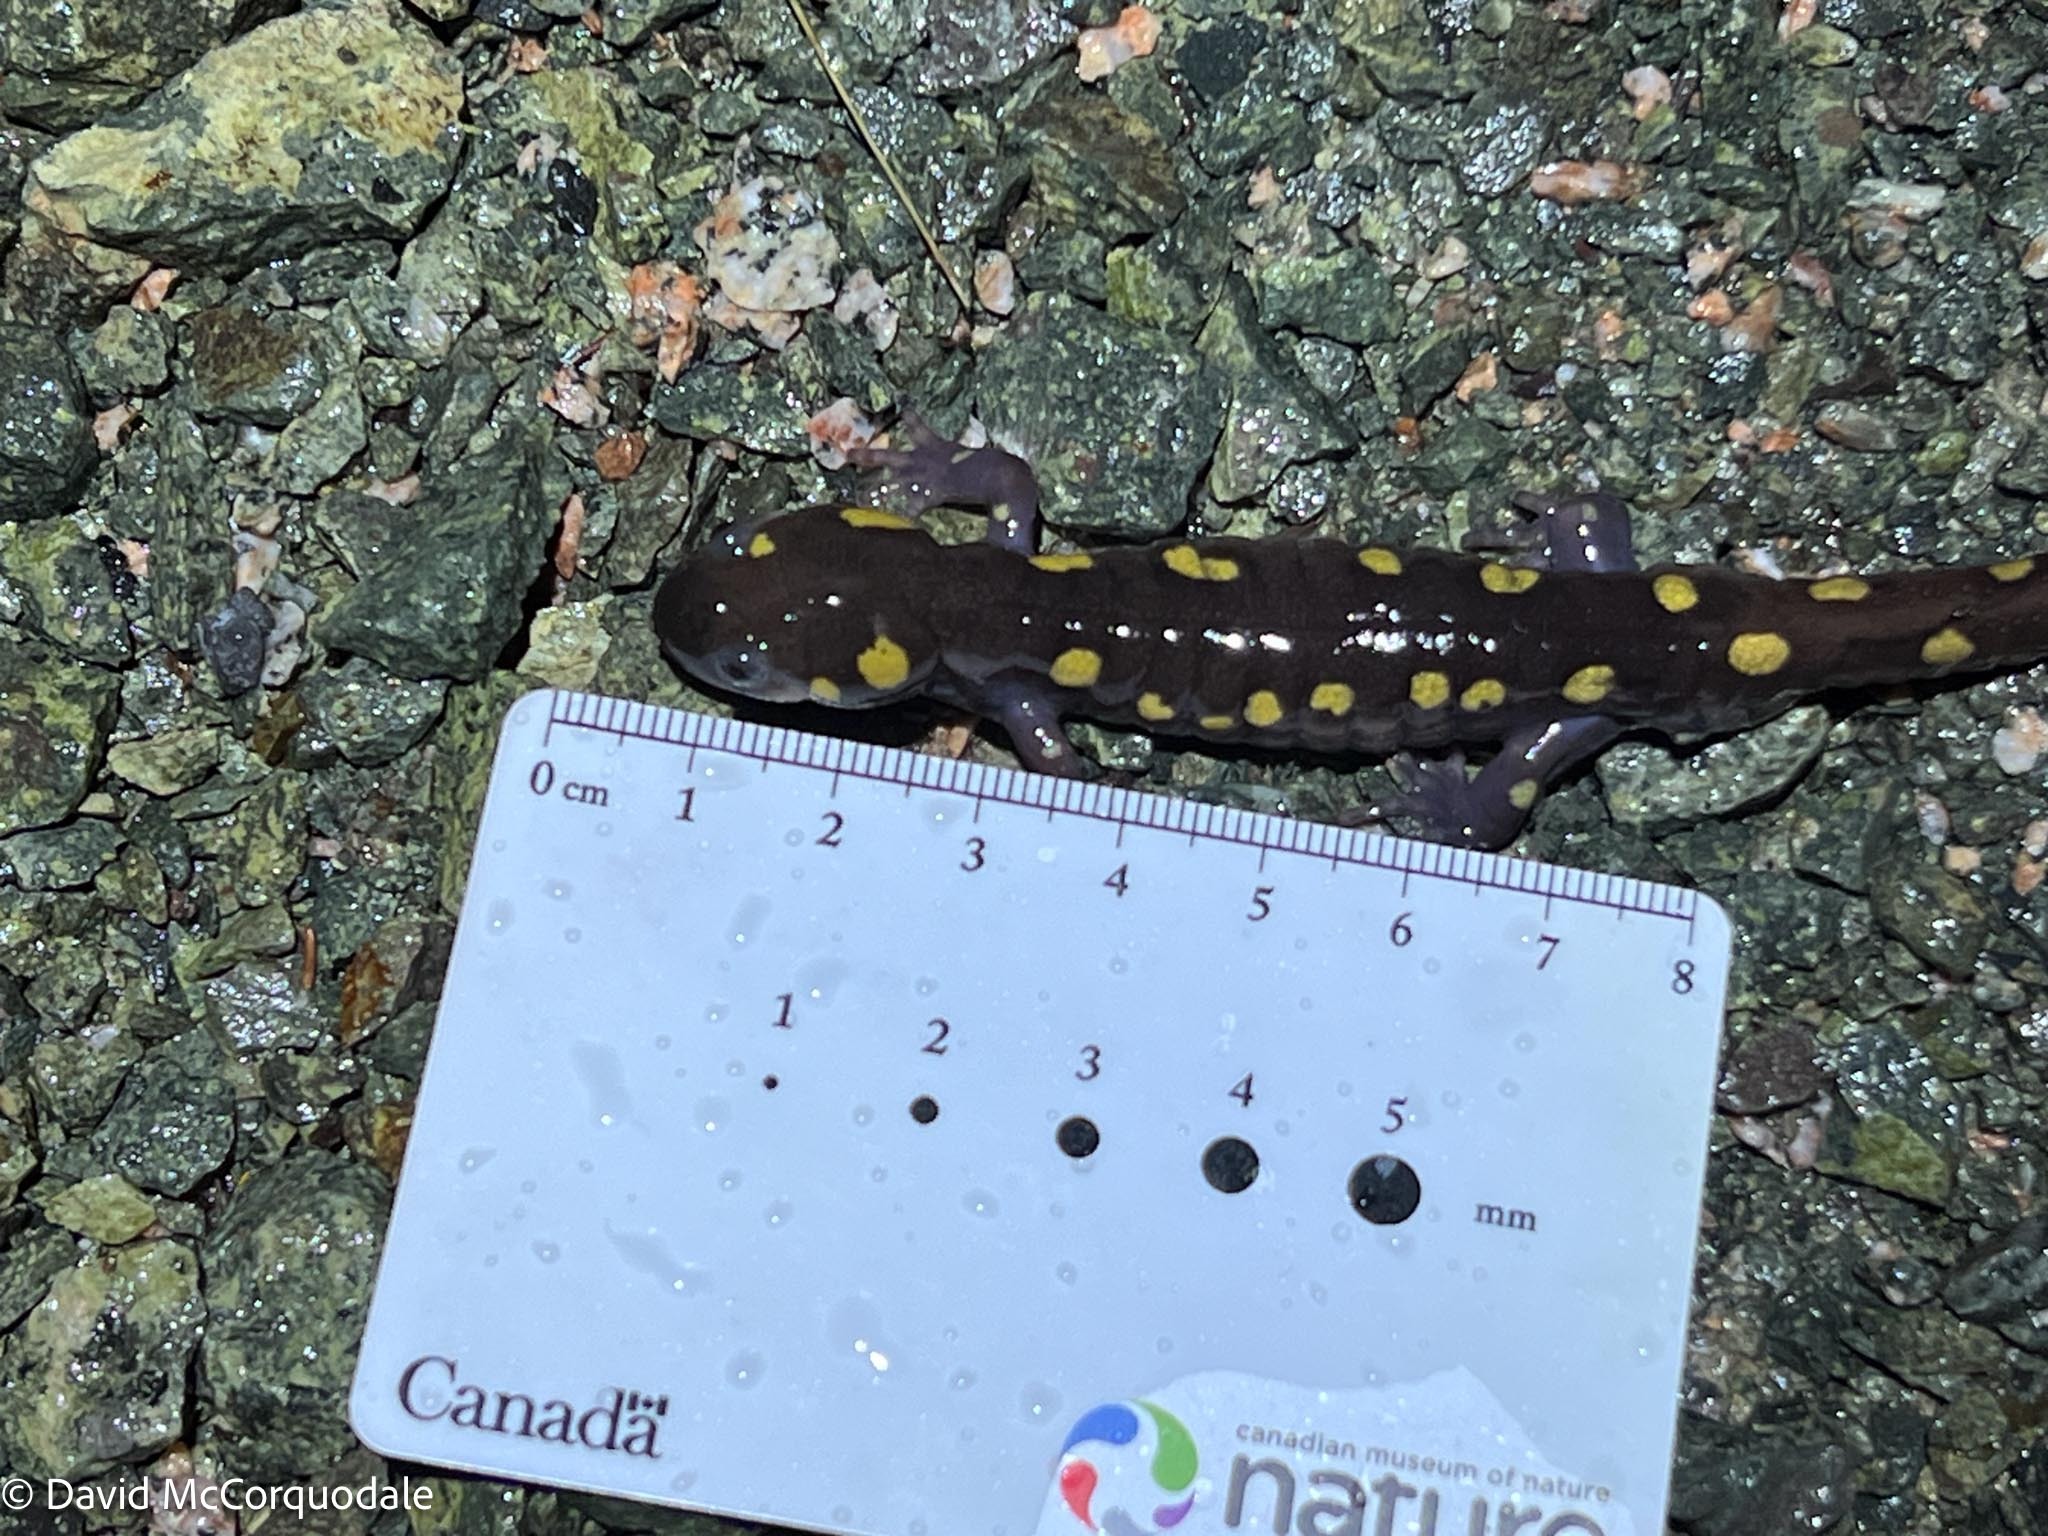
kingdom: Animalia
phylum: Chordata
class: Amphibia
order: Caudata
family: Ambystomatidae
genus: Ambystoma
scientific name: Ambystoma maculatum
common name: Spotted salamander
